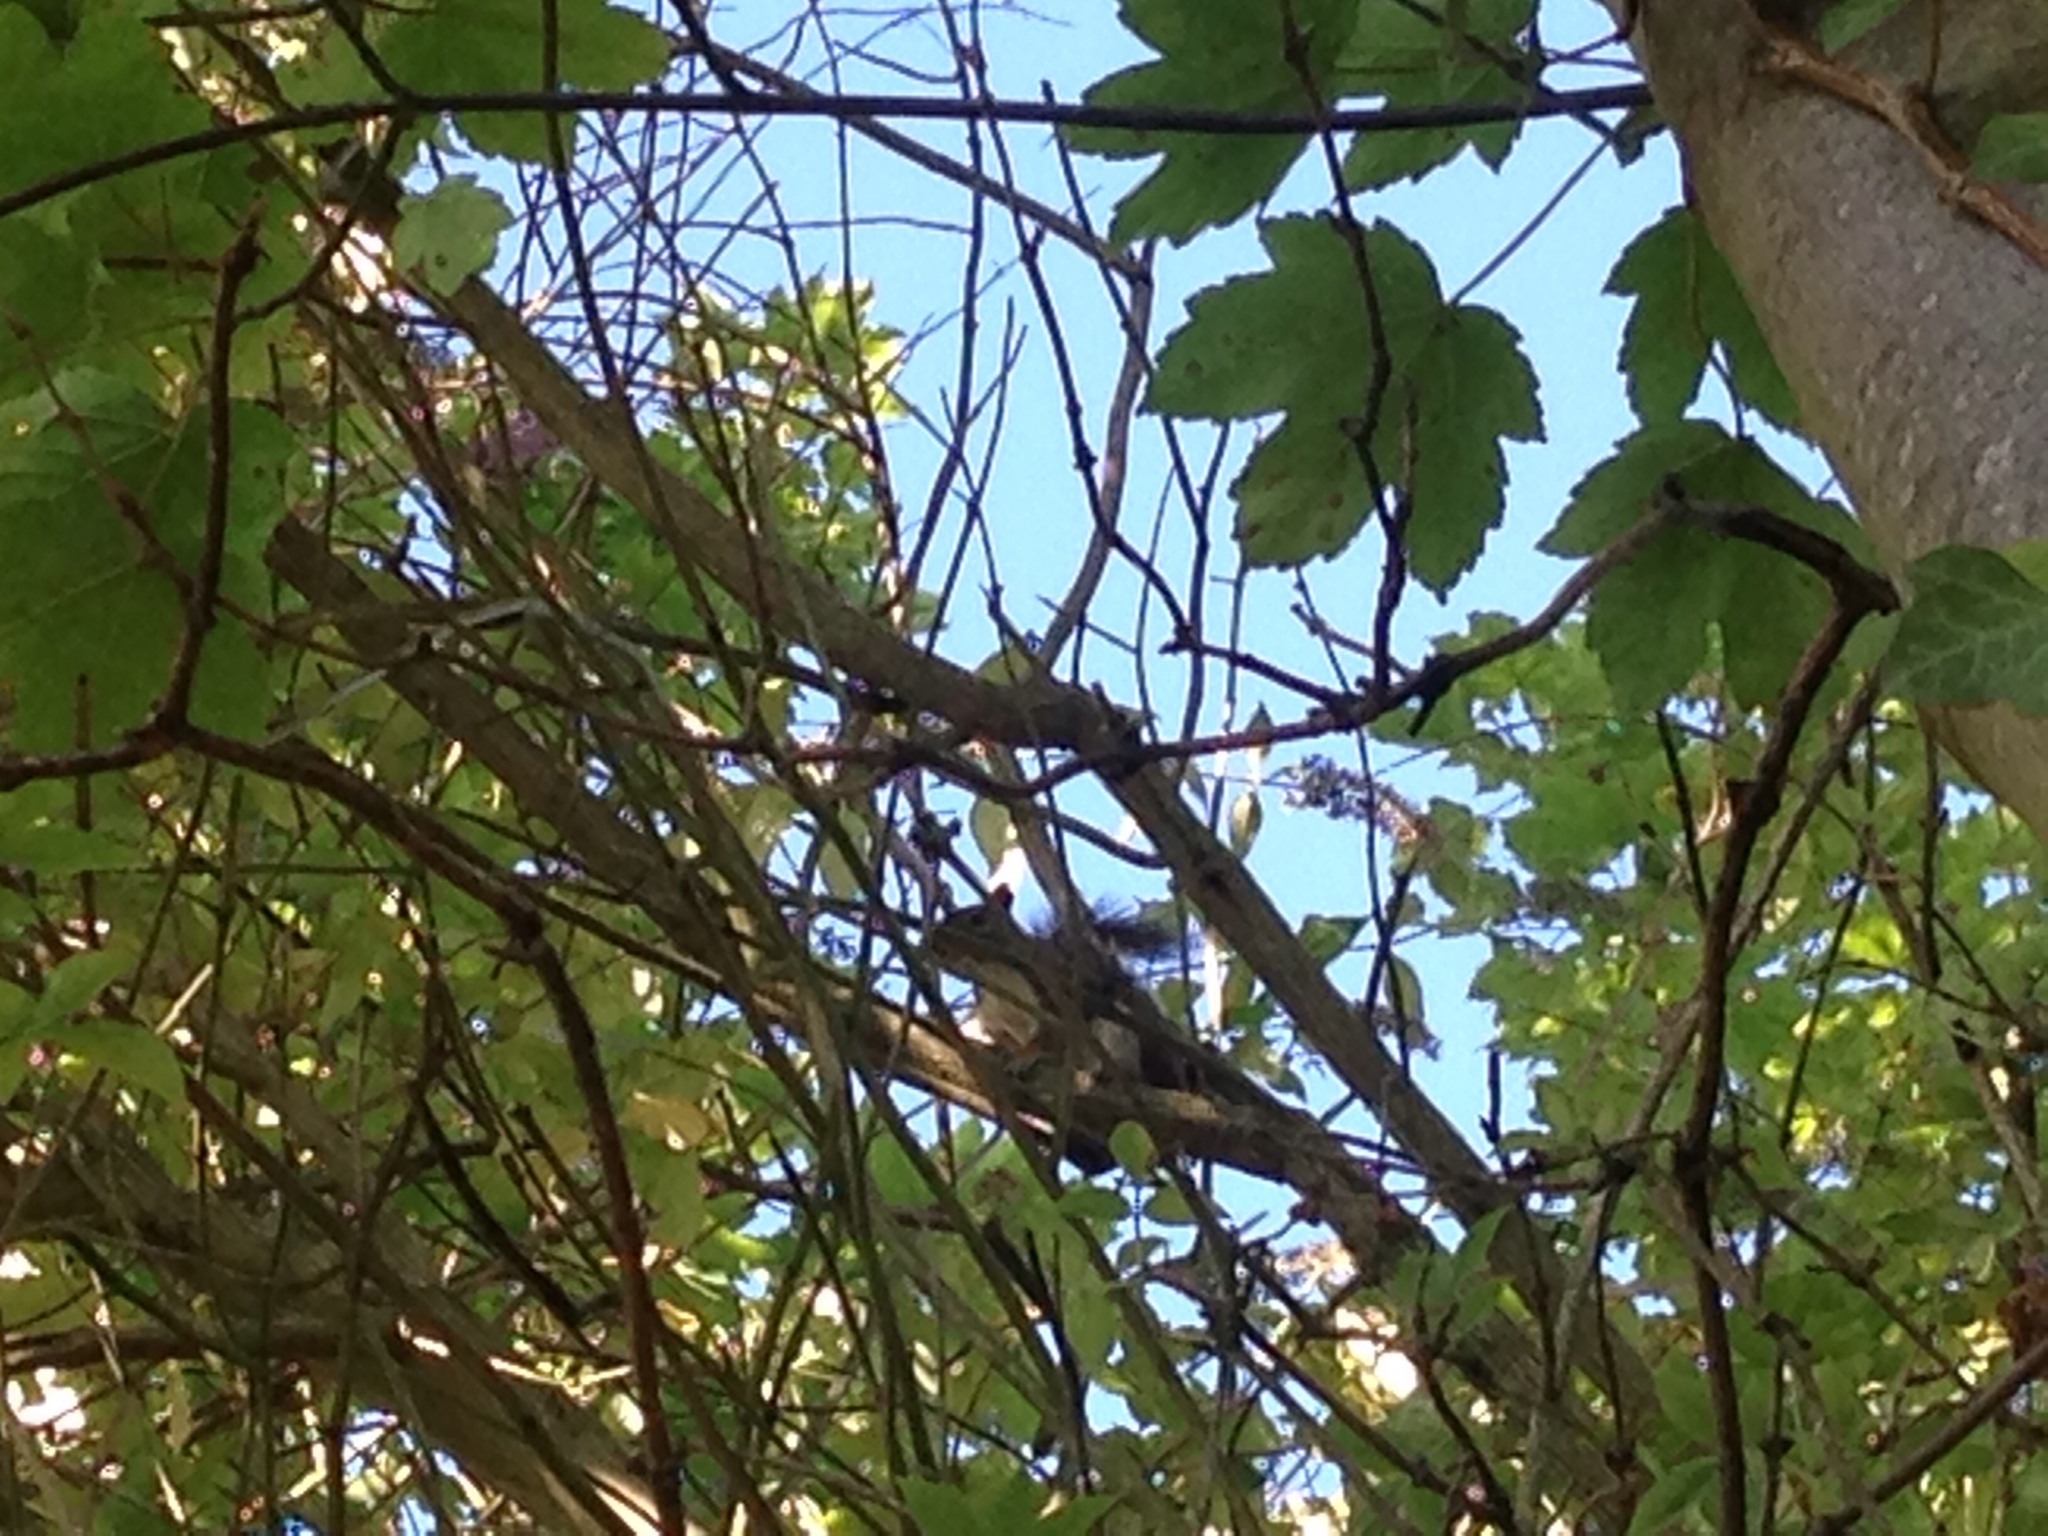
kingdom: Animalia
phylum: Chordata
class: Mammalia
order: Rodentia
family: Sciuridae
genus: Sciurus
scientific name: Sciurus carolinensis
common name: Eastern gray squirrel
